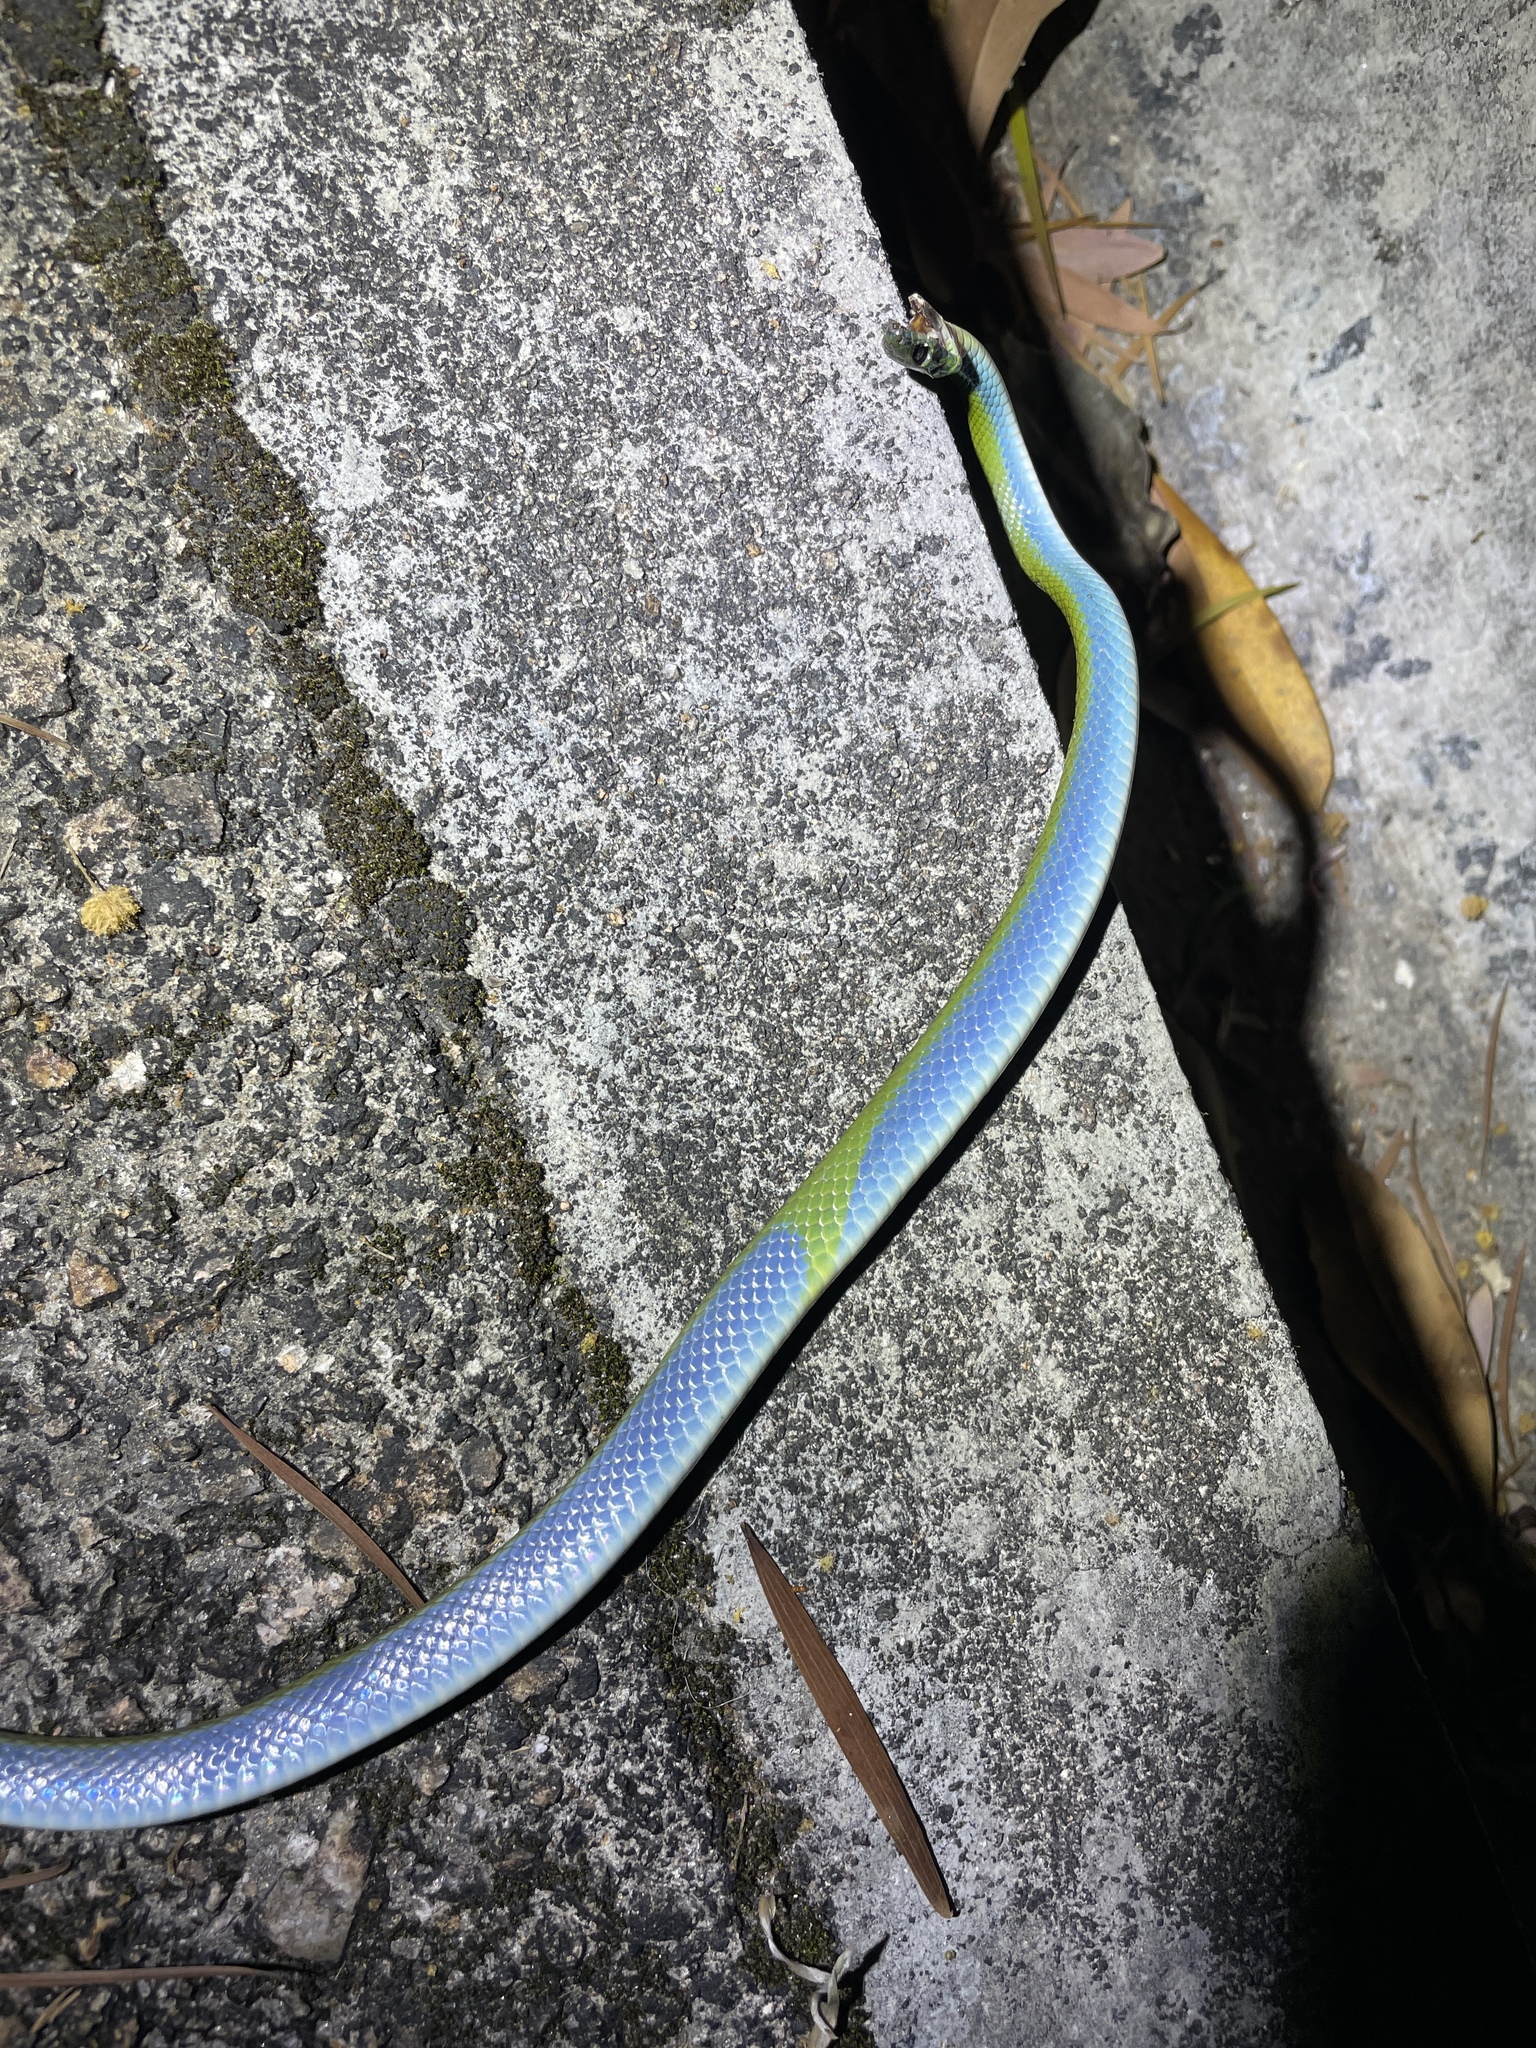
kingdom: Animalia
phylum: Chordata
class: Squamata
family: Colubridae
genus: Ptyas
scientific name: Ptyas major
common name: Chinese green snake
